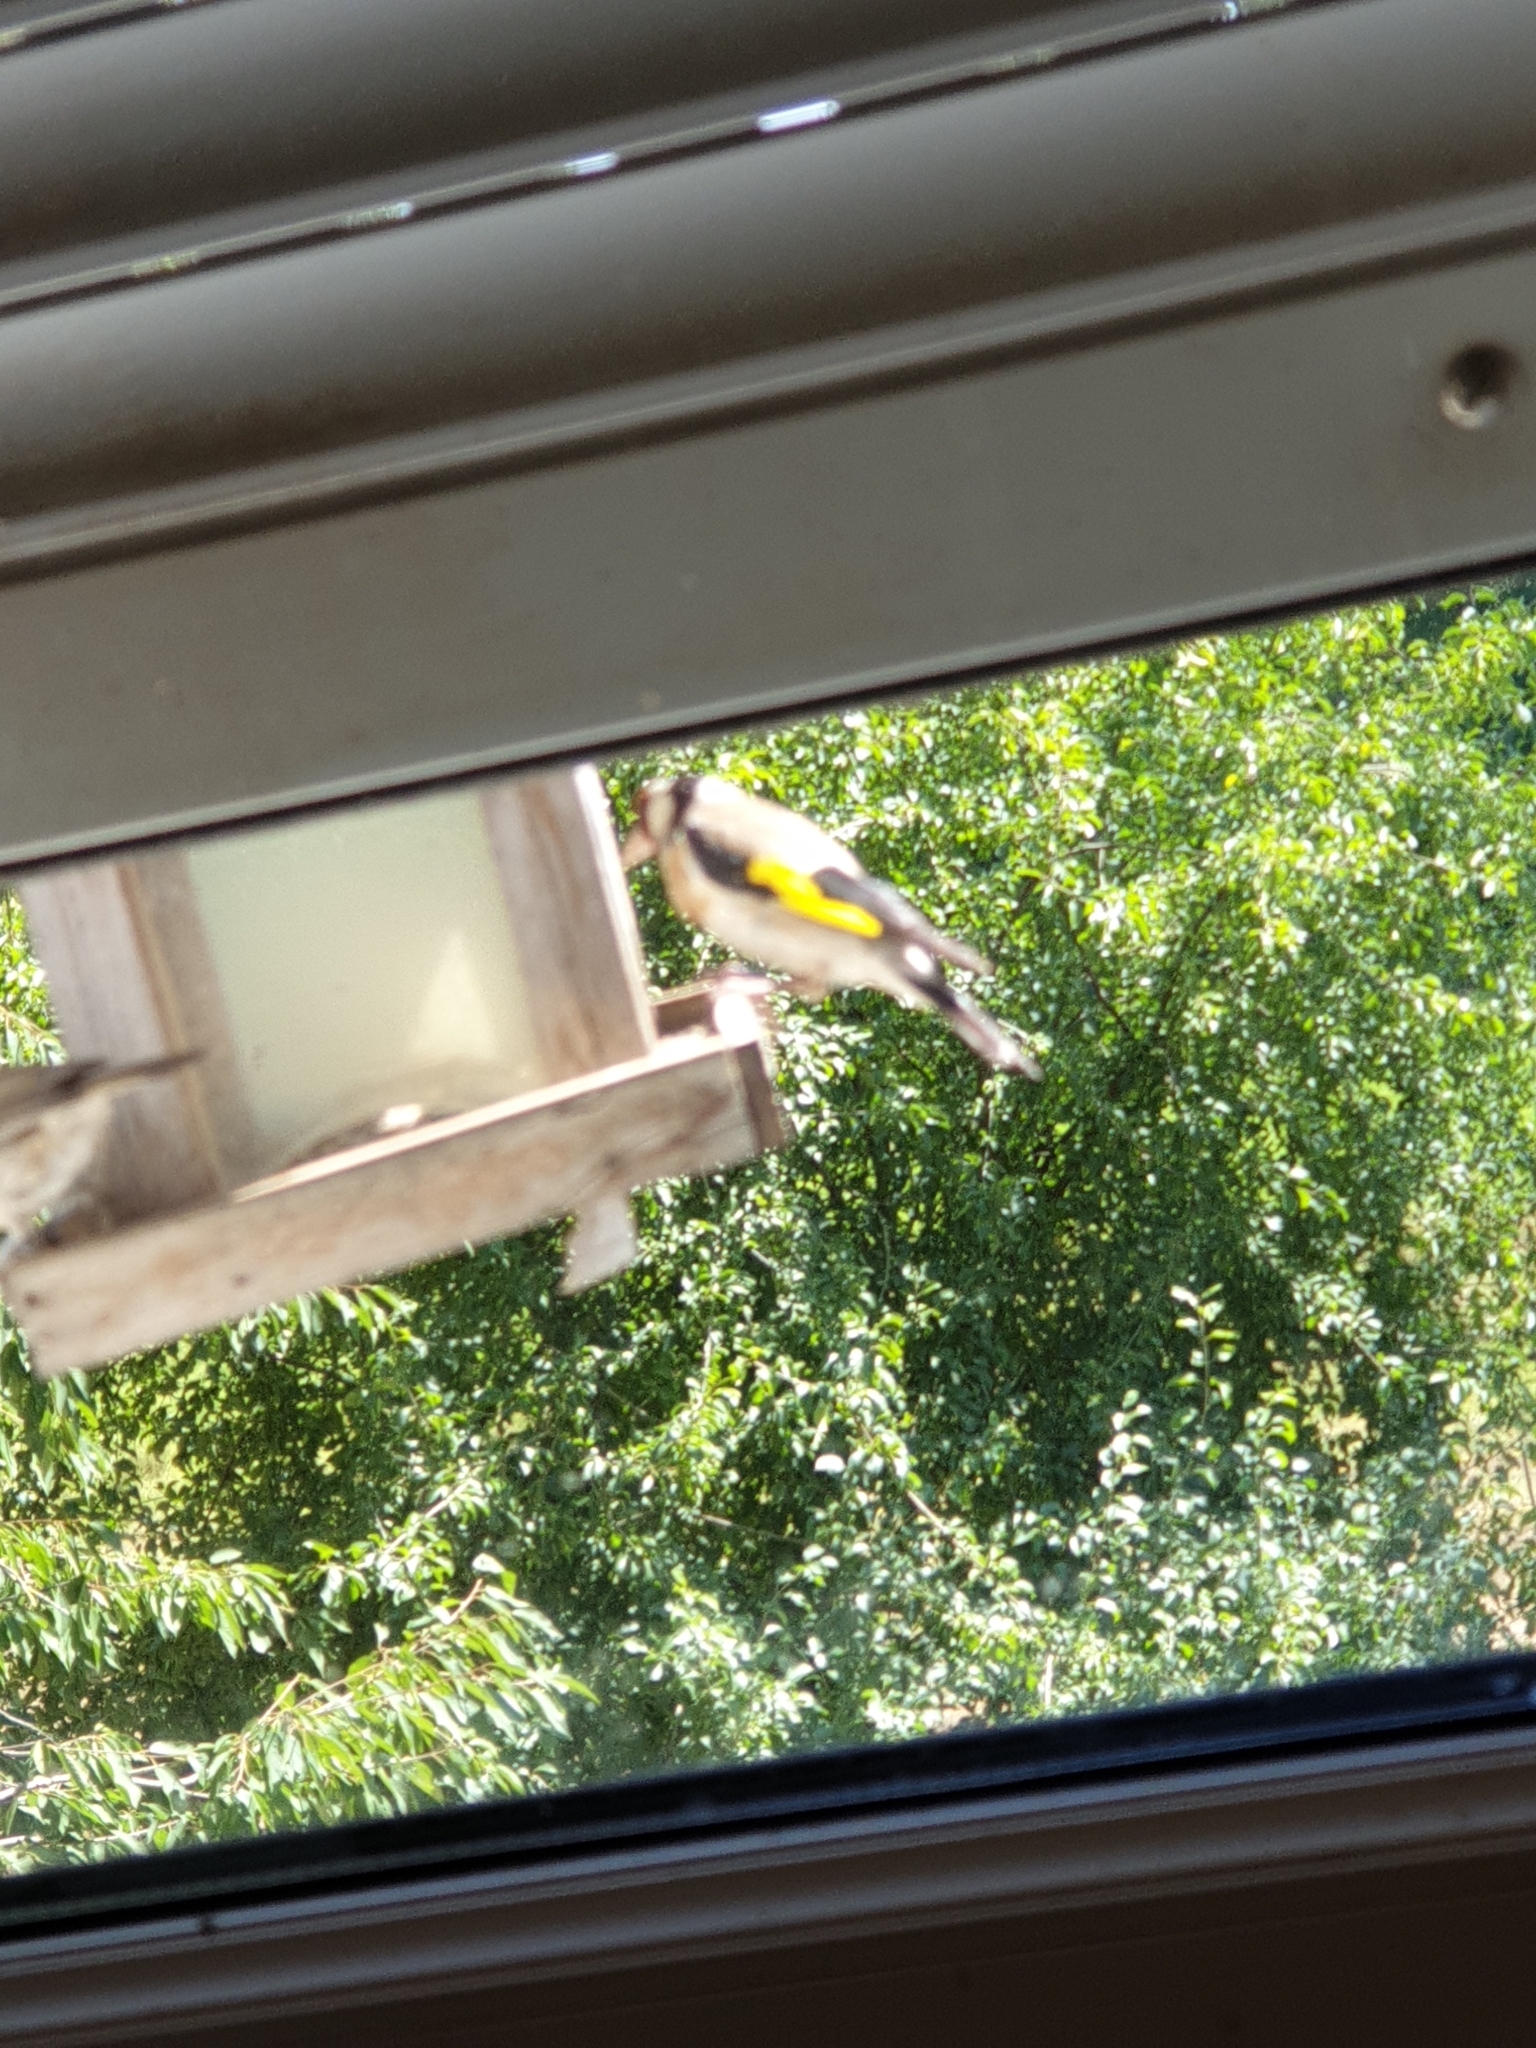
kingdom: Animalia
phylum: Chordata
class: Aves
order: Passeriformes
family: Fringillidae
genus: Carduelis
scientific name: Carduelis carduelis
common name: European goldfinch
